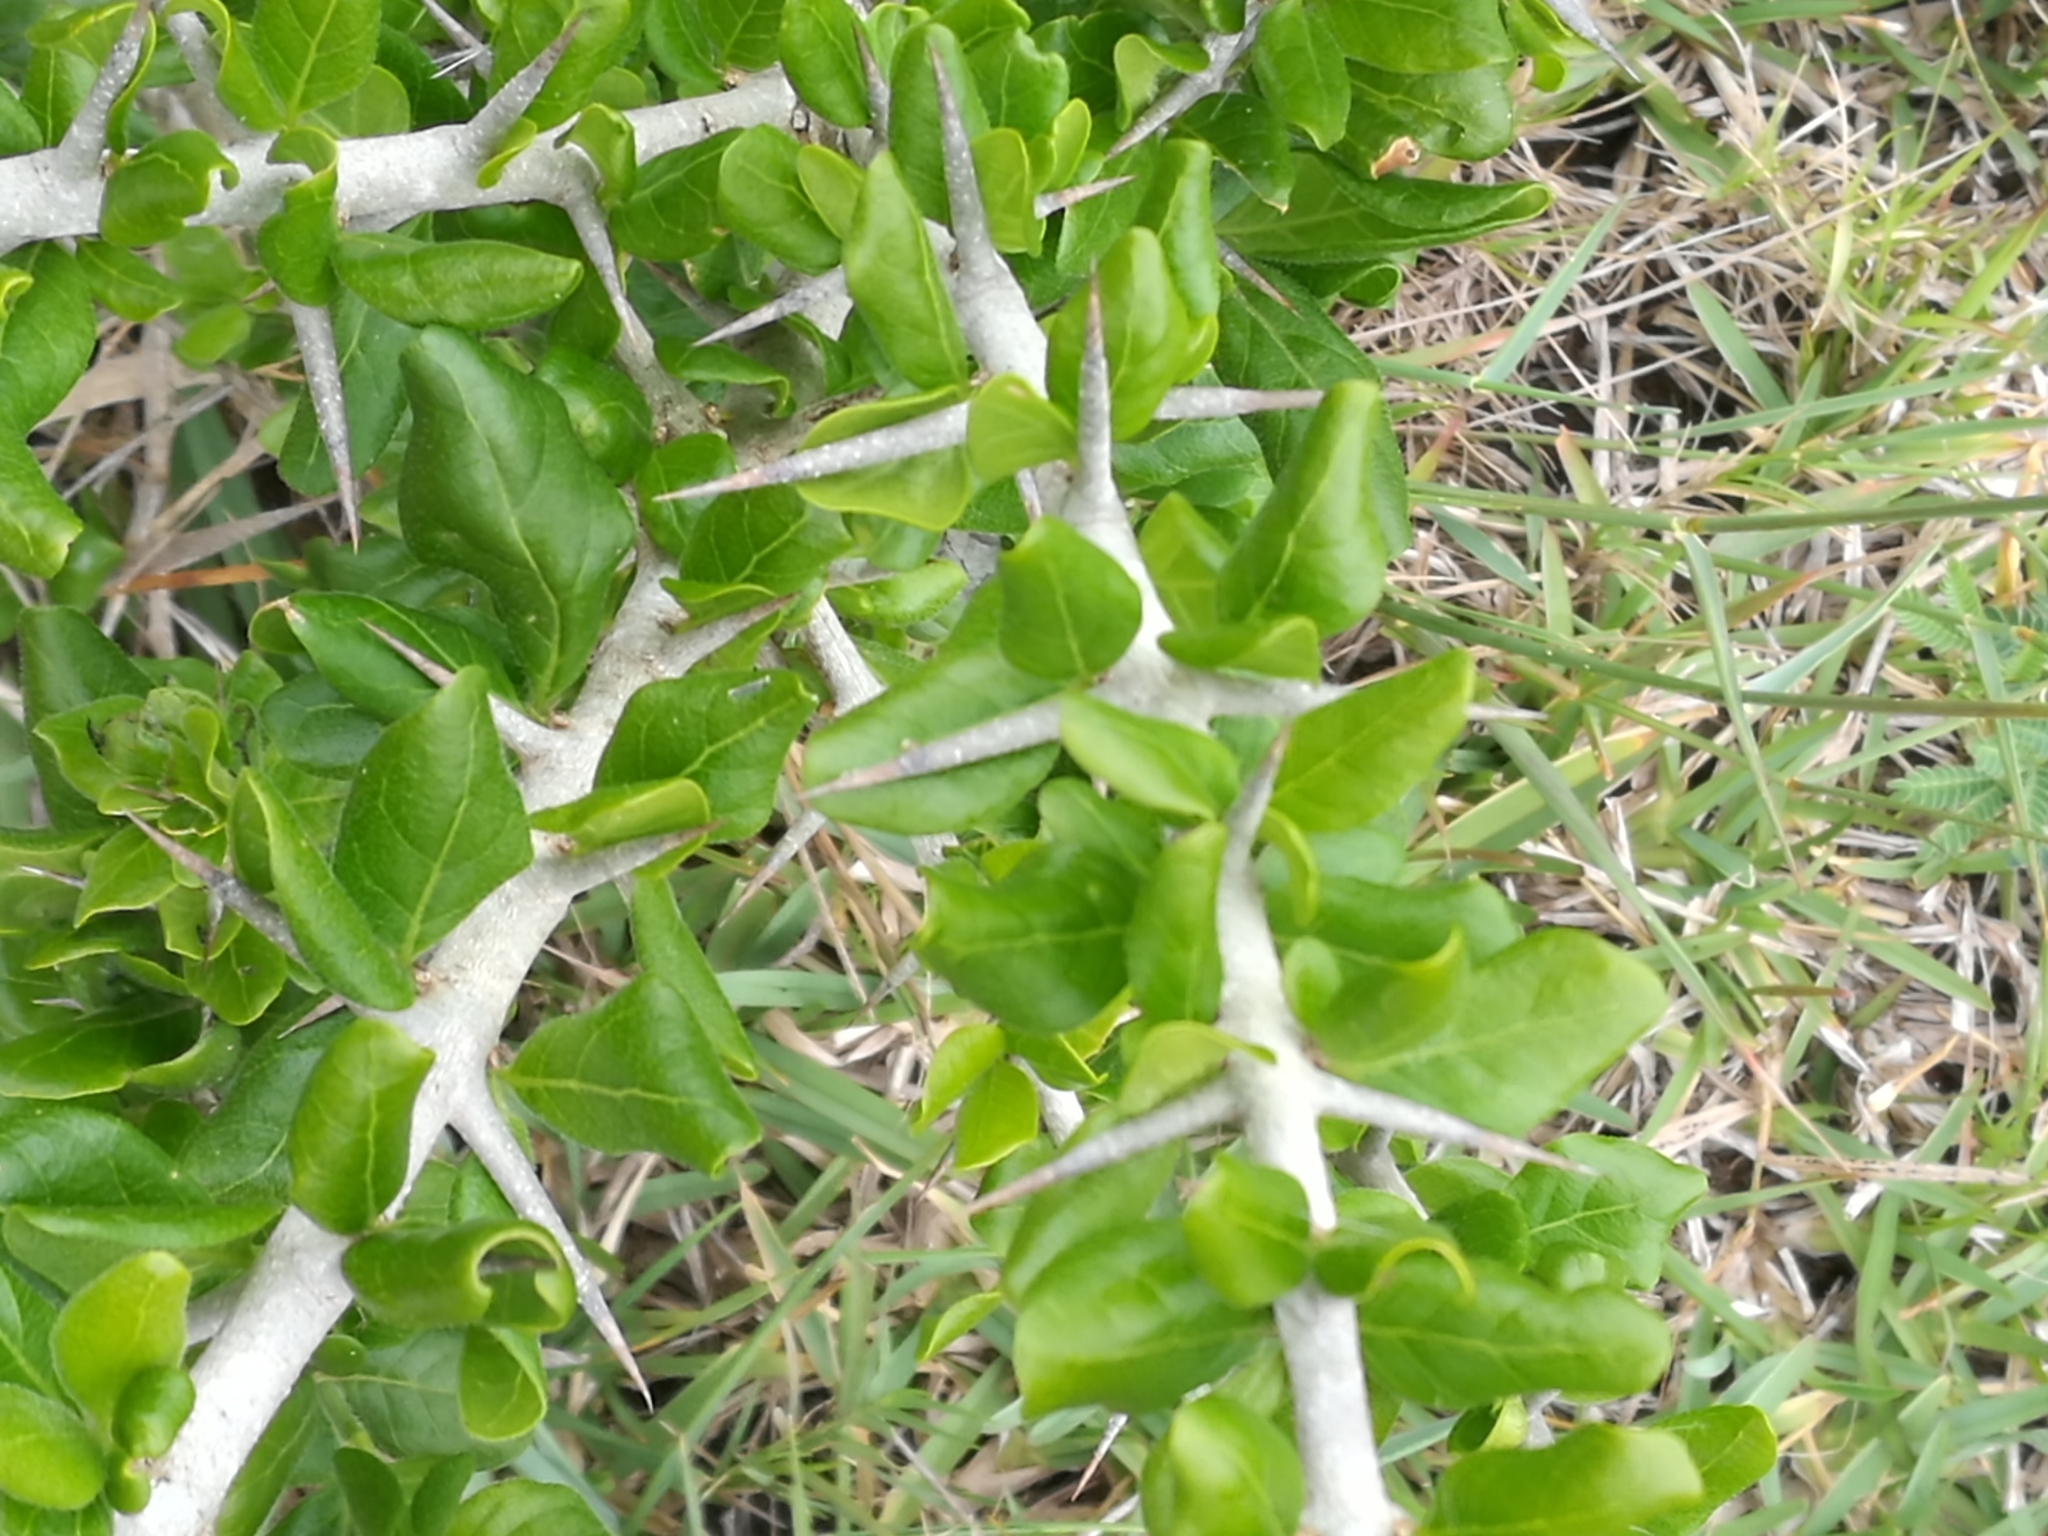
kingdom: Plantae
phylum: Tracheophyta
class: Magnoliopsida
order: Gentianales
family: Rubiaceae
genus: Catunaregam
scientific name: Catunaregam spinosa
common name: Emetic-nut
